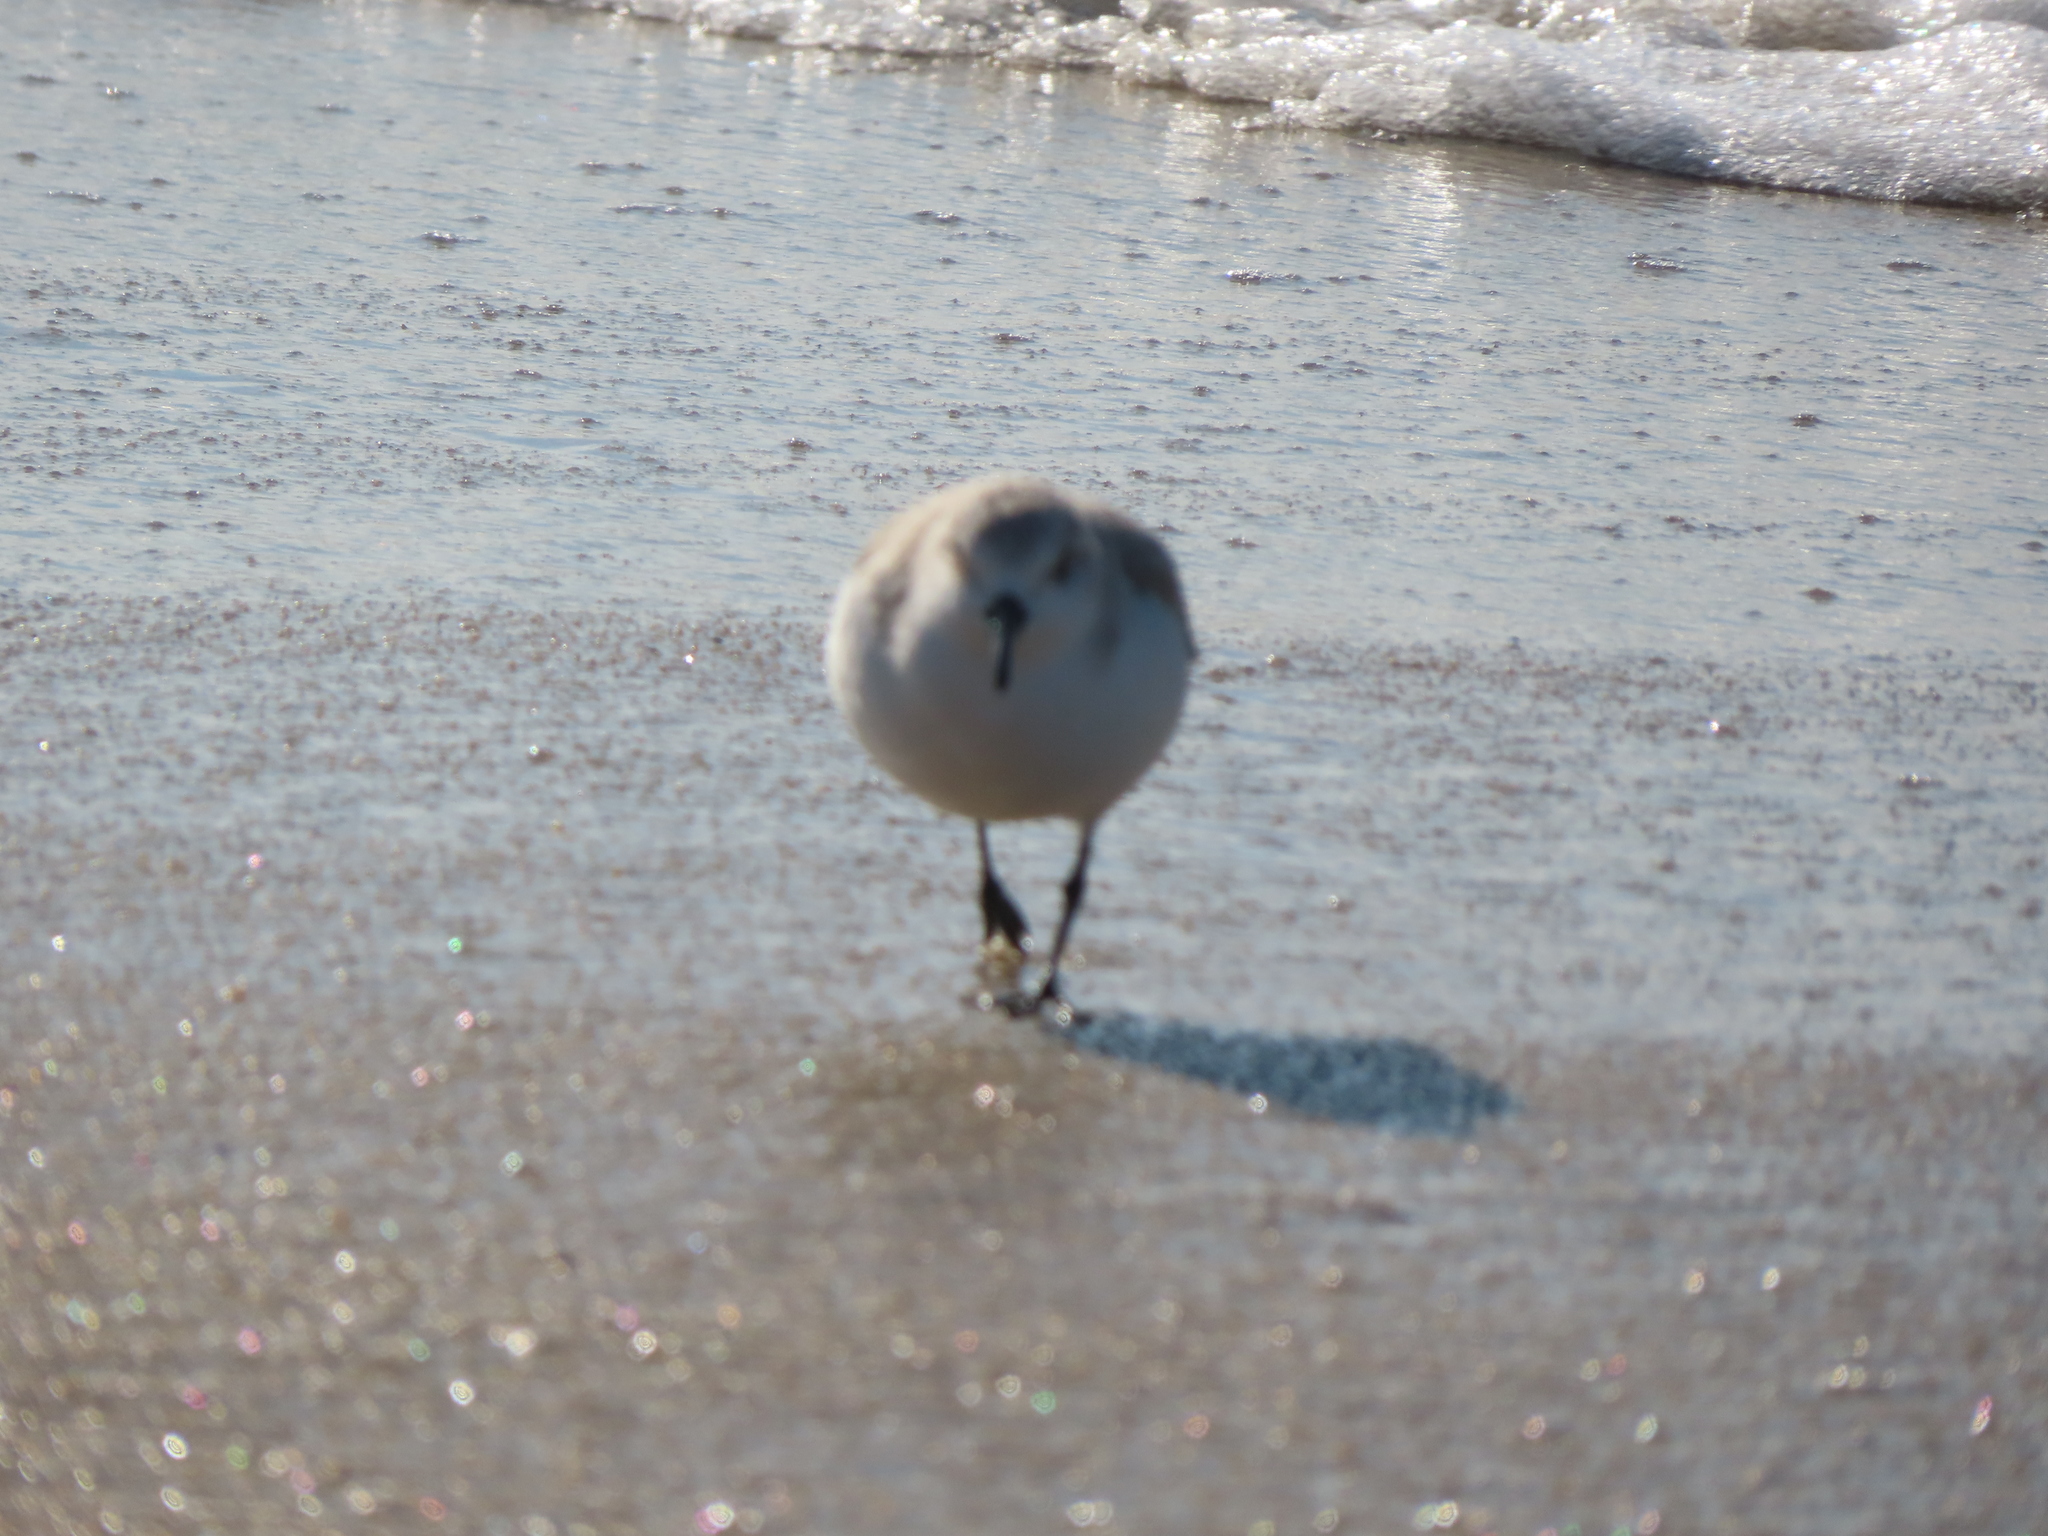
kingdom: Animalia
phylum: Chordata
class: Aves
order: Charadriiformes
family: Scolopacidae
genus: Calidris
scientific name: Calidris alba
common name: Sanderling
